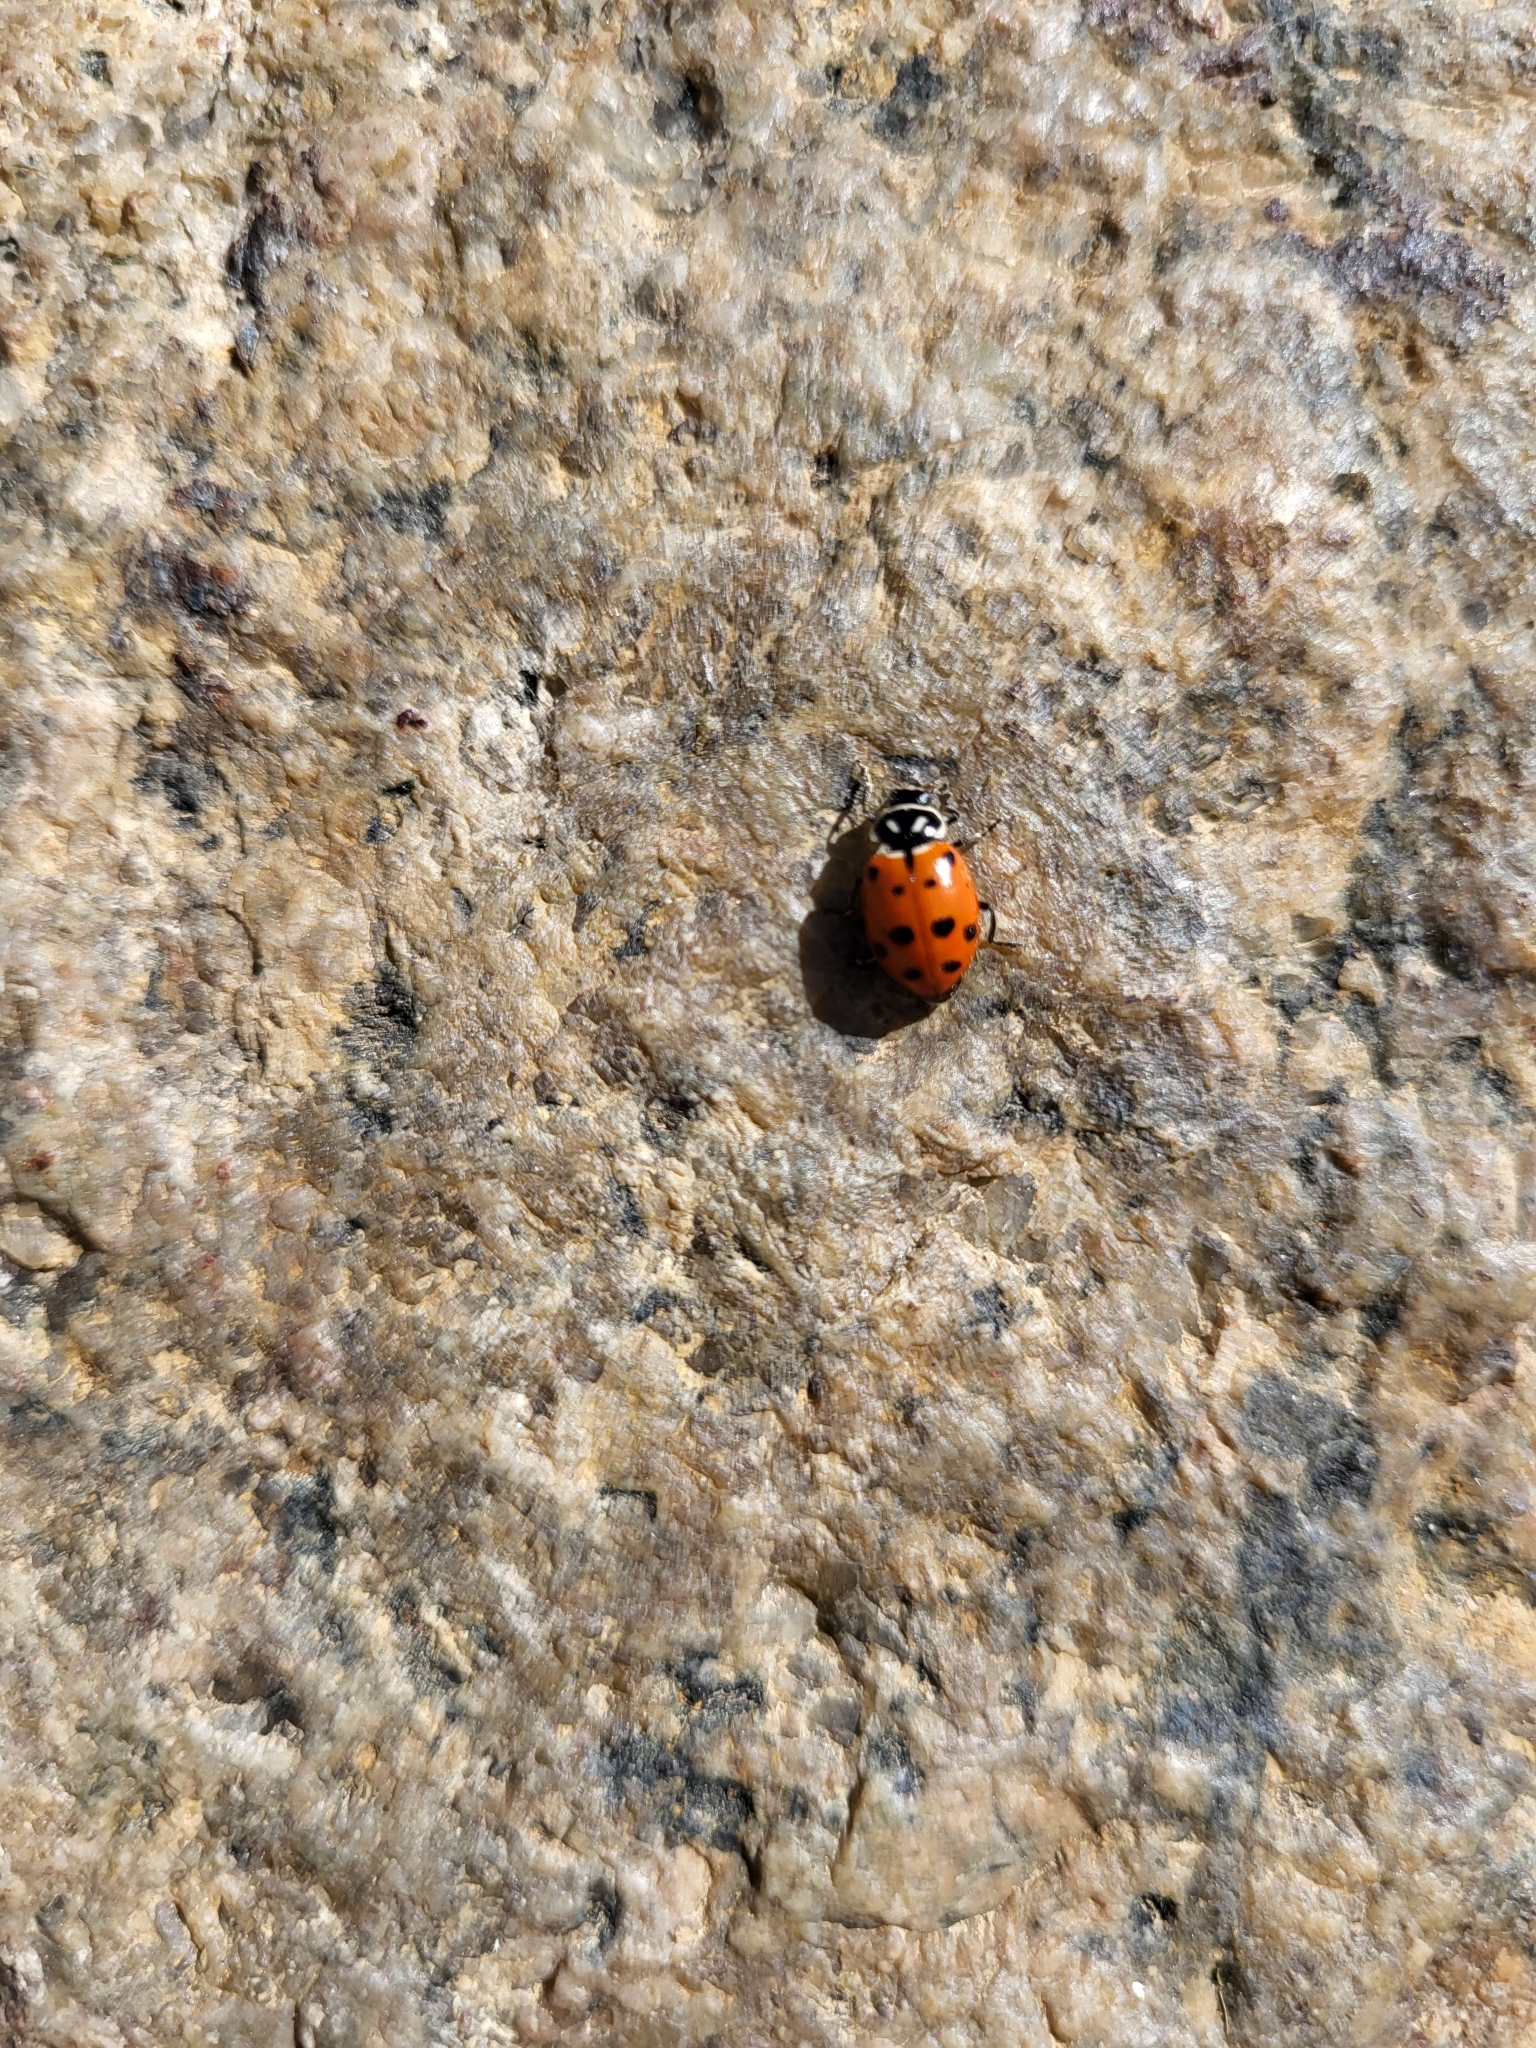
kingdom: Animalia
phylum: Arthropoda
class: Insecta
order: Coleoptera
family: Coccinellidae
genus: Hippodamia
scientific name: Hippodamia convergens
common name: Convergent lady beetle
